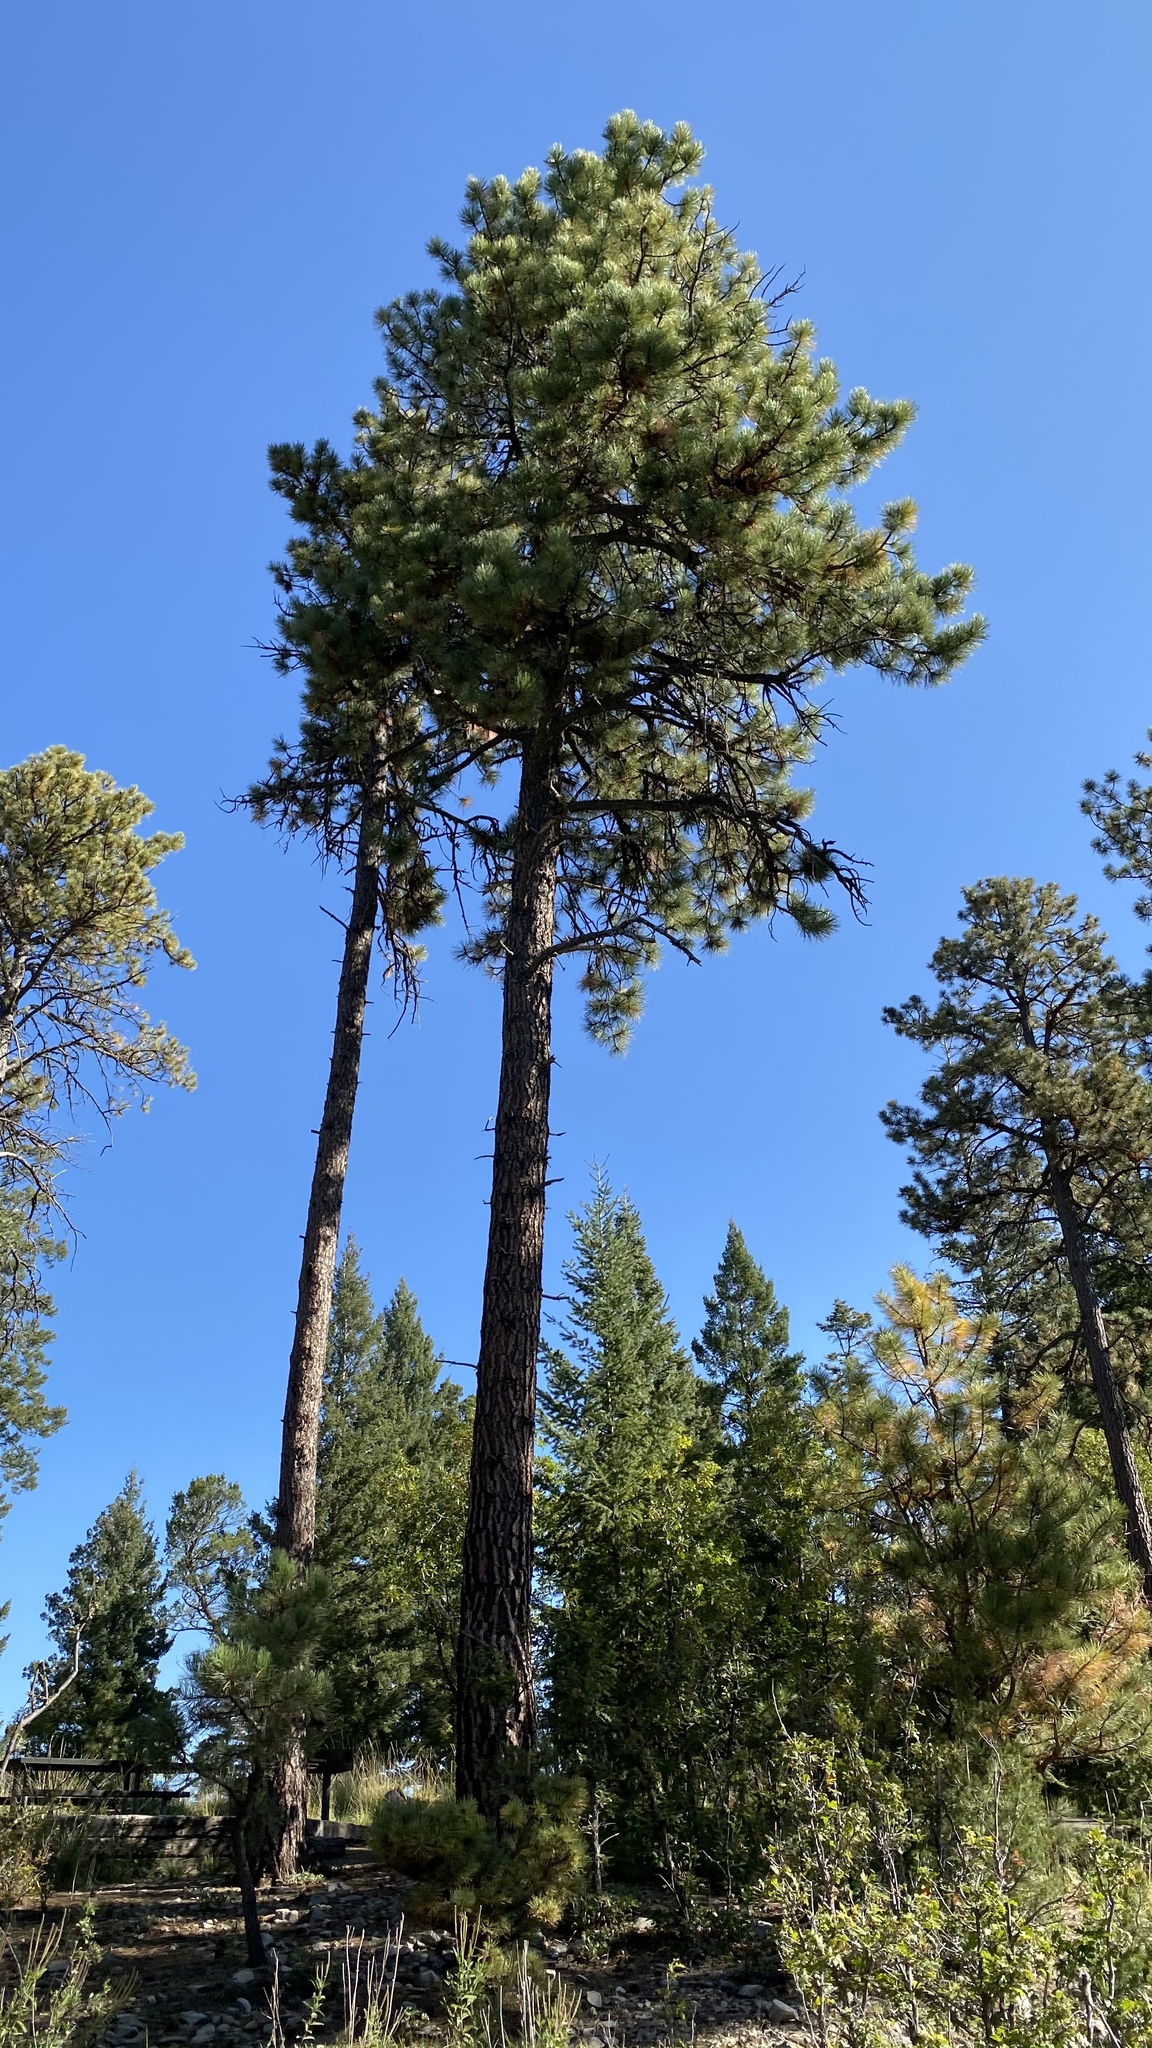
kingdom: Plantae
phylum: Tracheophyta
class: Pinopsida
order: Pinales
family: Pinaceae
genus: Pinus
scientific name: Pinus ponderosa
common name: Western yellow-pine
